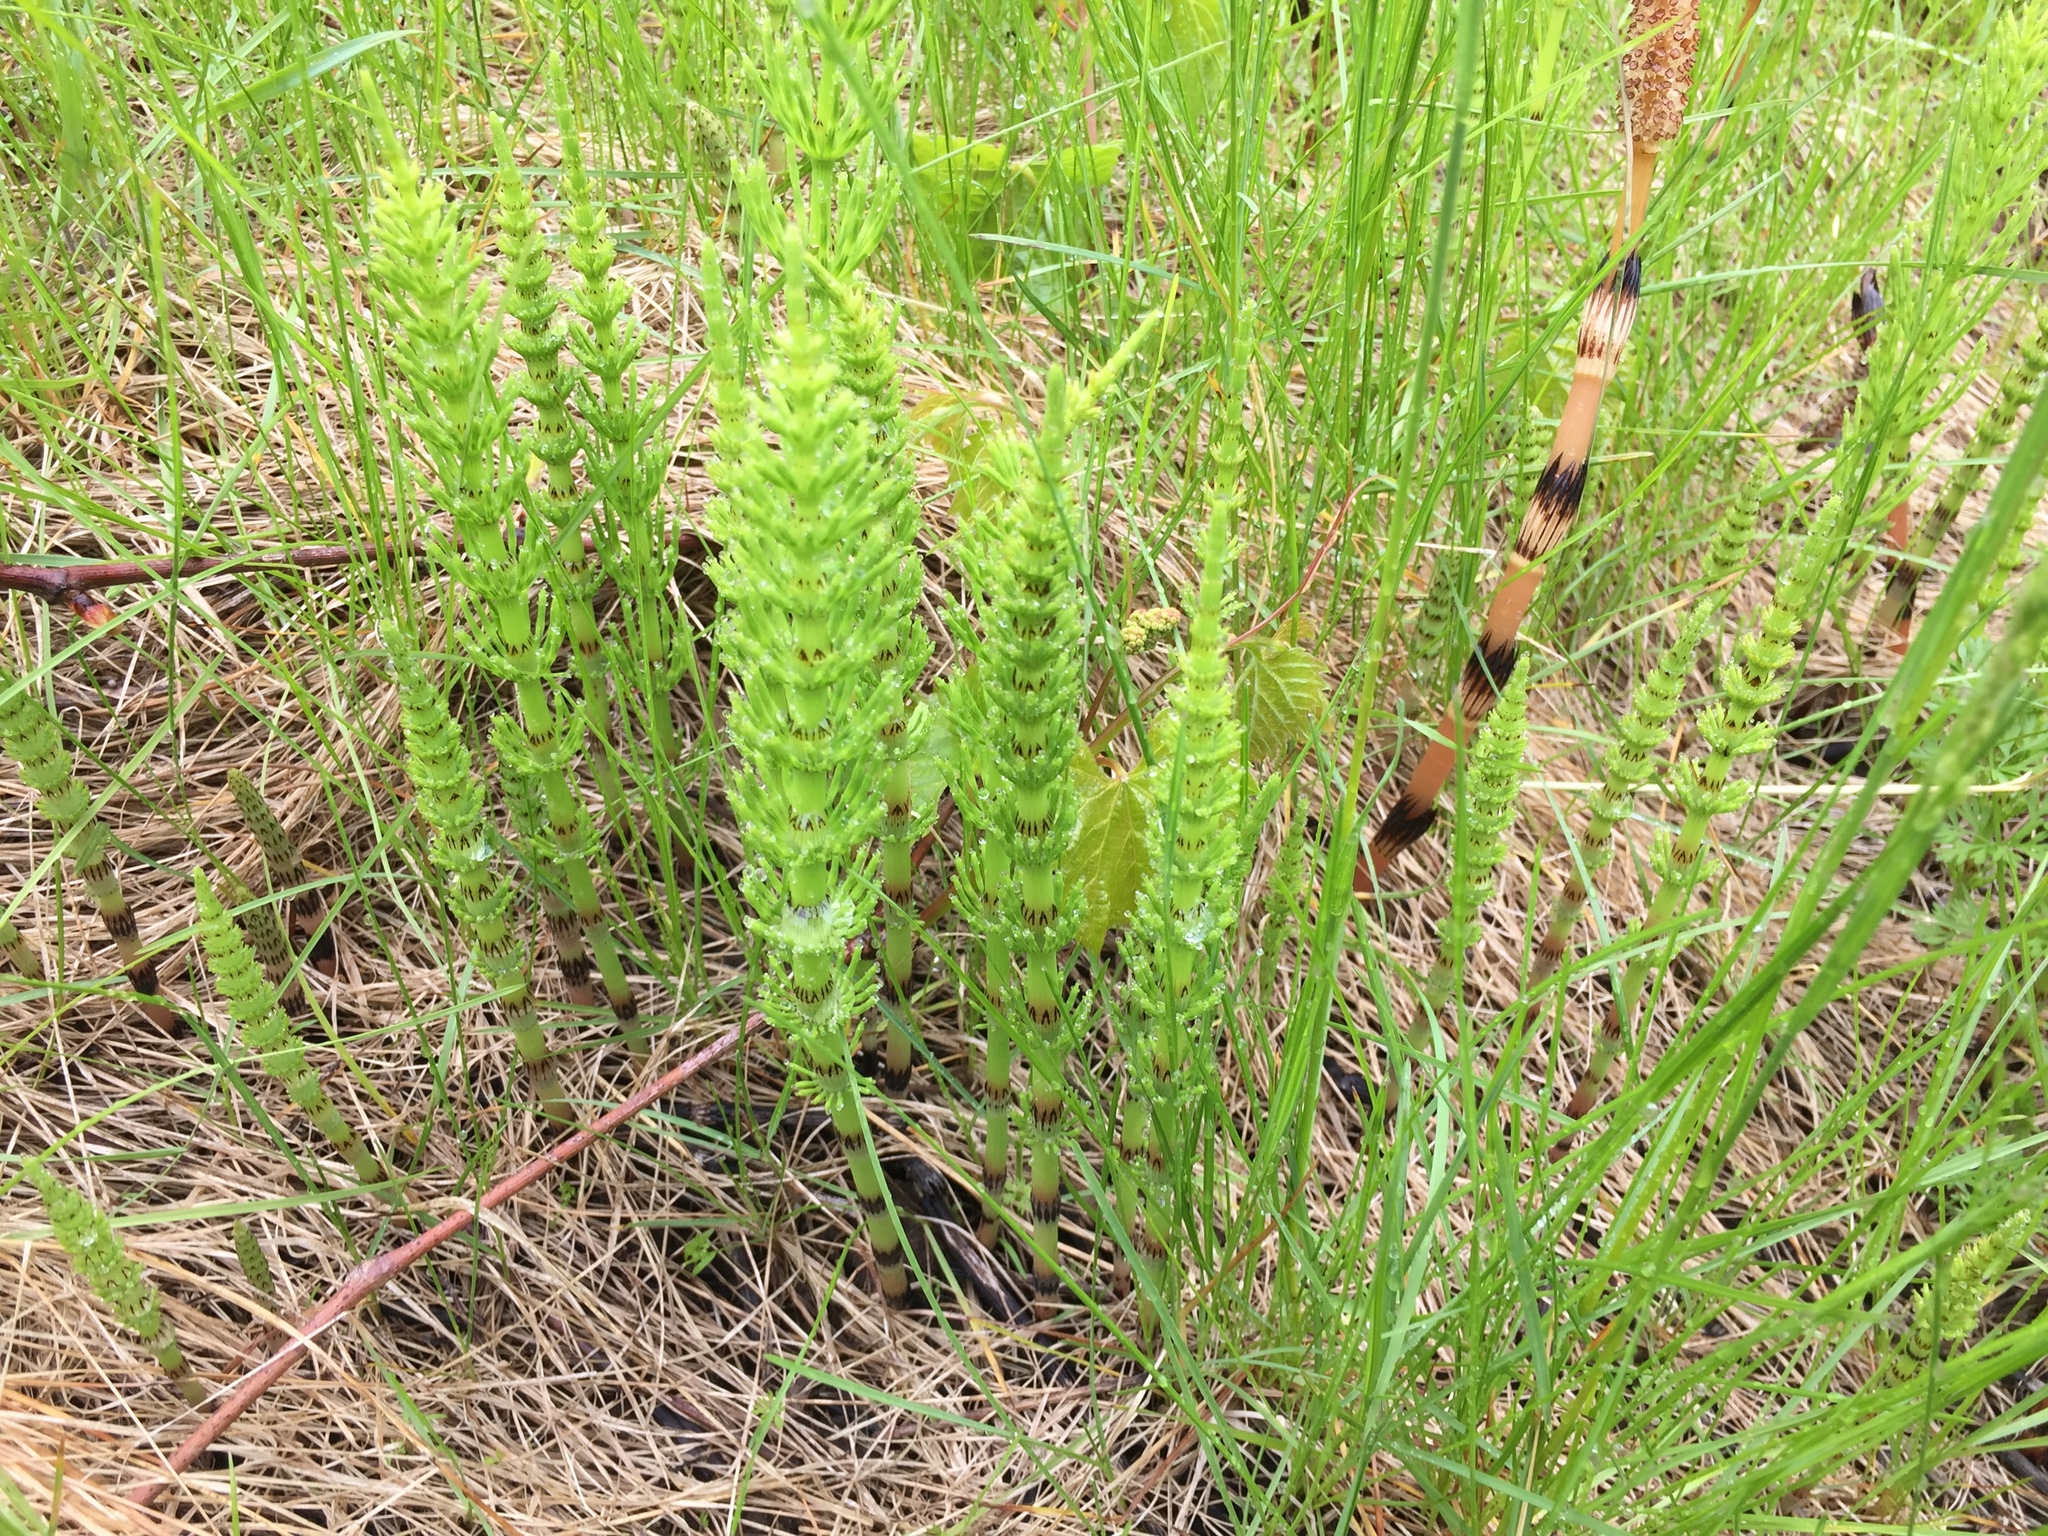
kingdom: Plantae
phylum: Tracheophyta
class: Polypodiopsida
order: Equisetales
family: Equisetaceae
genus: Equisetum
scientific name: Equisetum arvense
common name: Field horsetail
